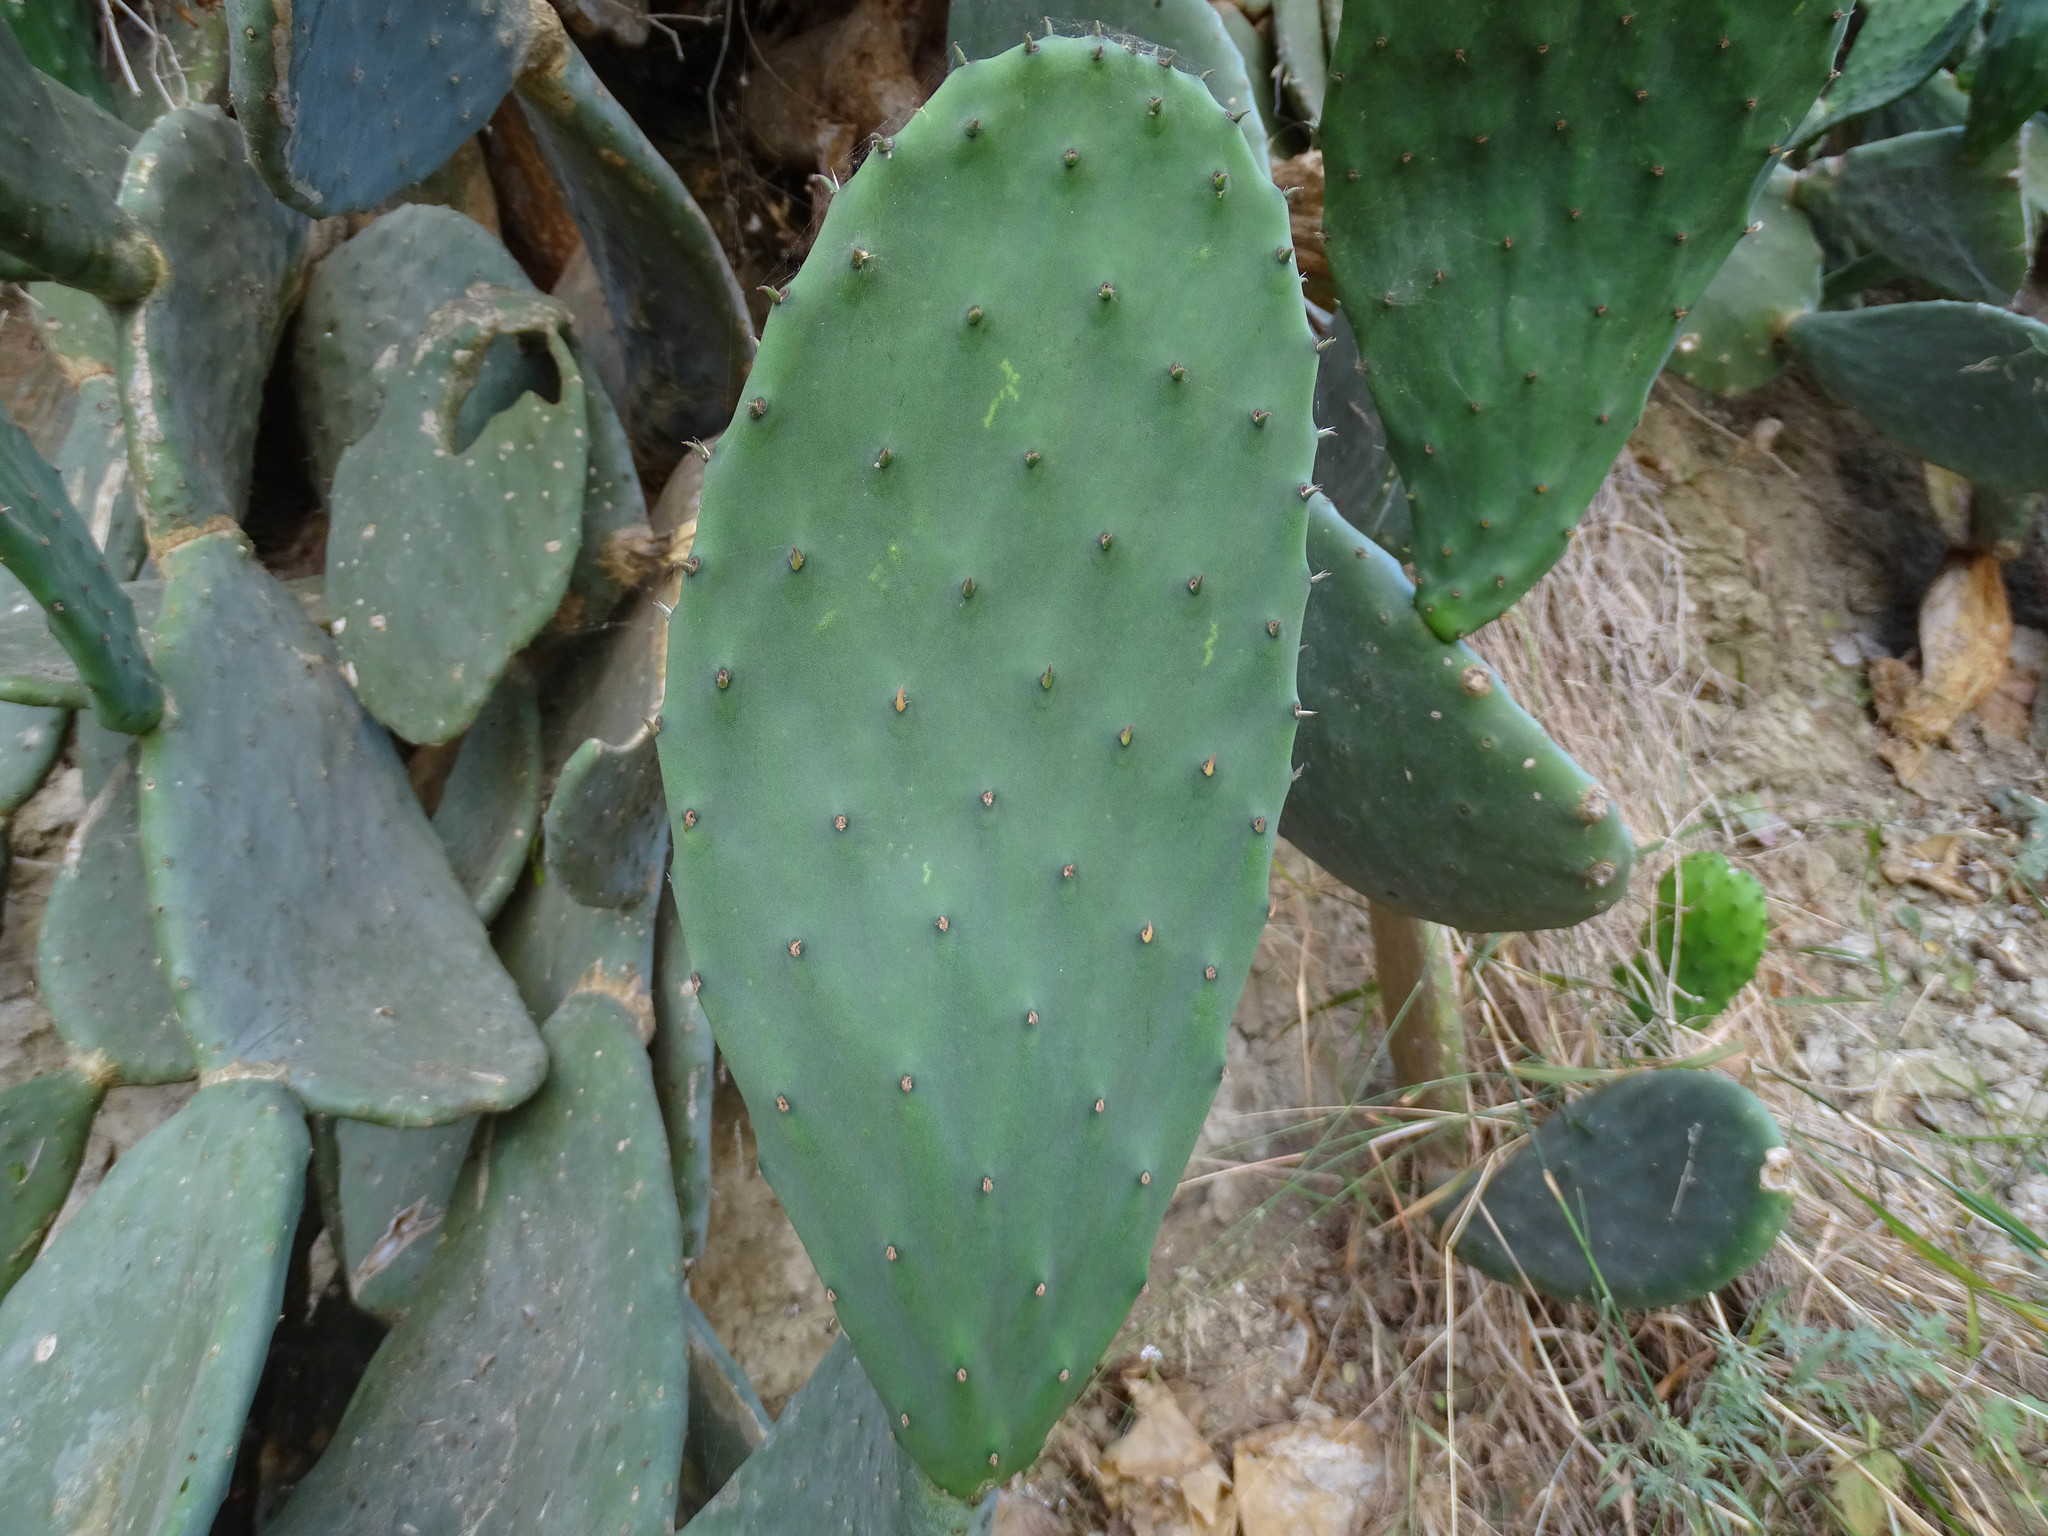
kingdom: Plantae
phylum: Tracheophyta
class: Magnoliopsida
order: Caryophyllales
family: Cactaceae
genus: Opuntia
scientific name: Opuntia ficus-indica
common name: Barbary fig
